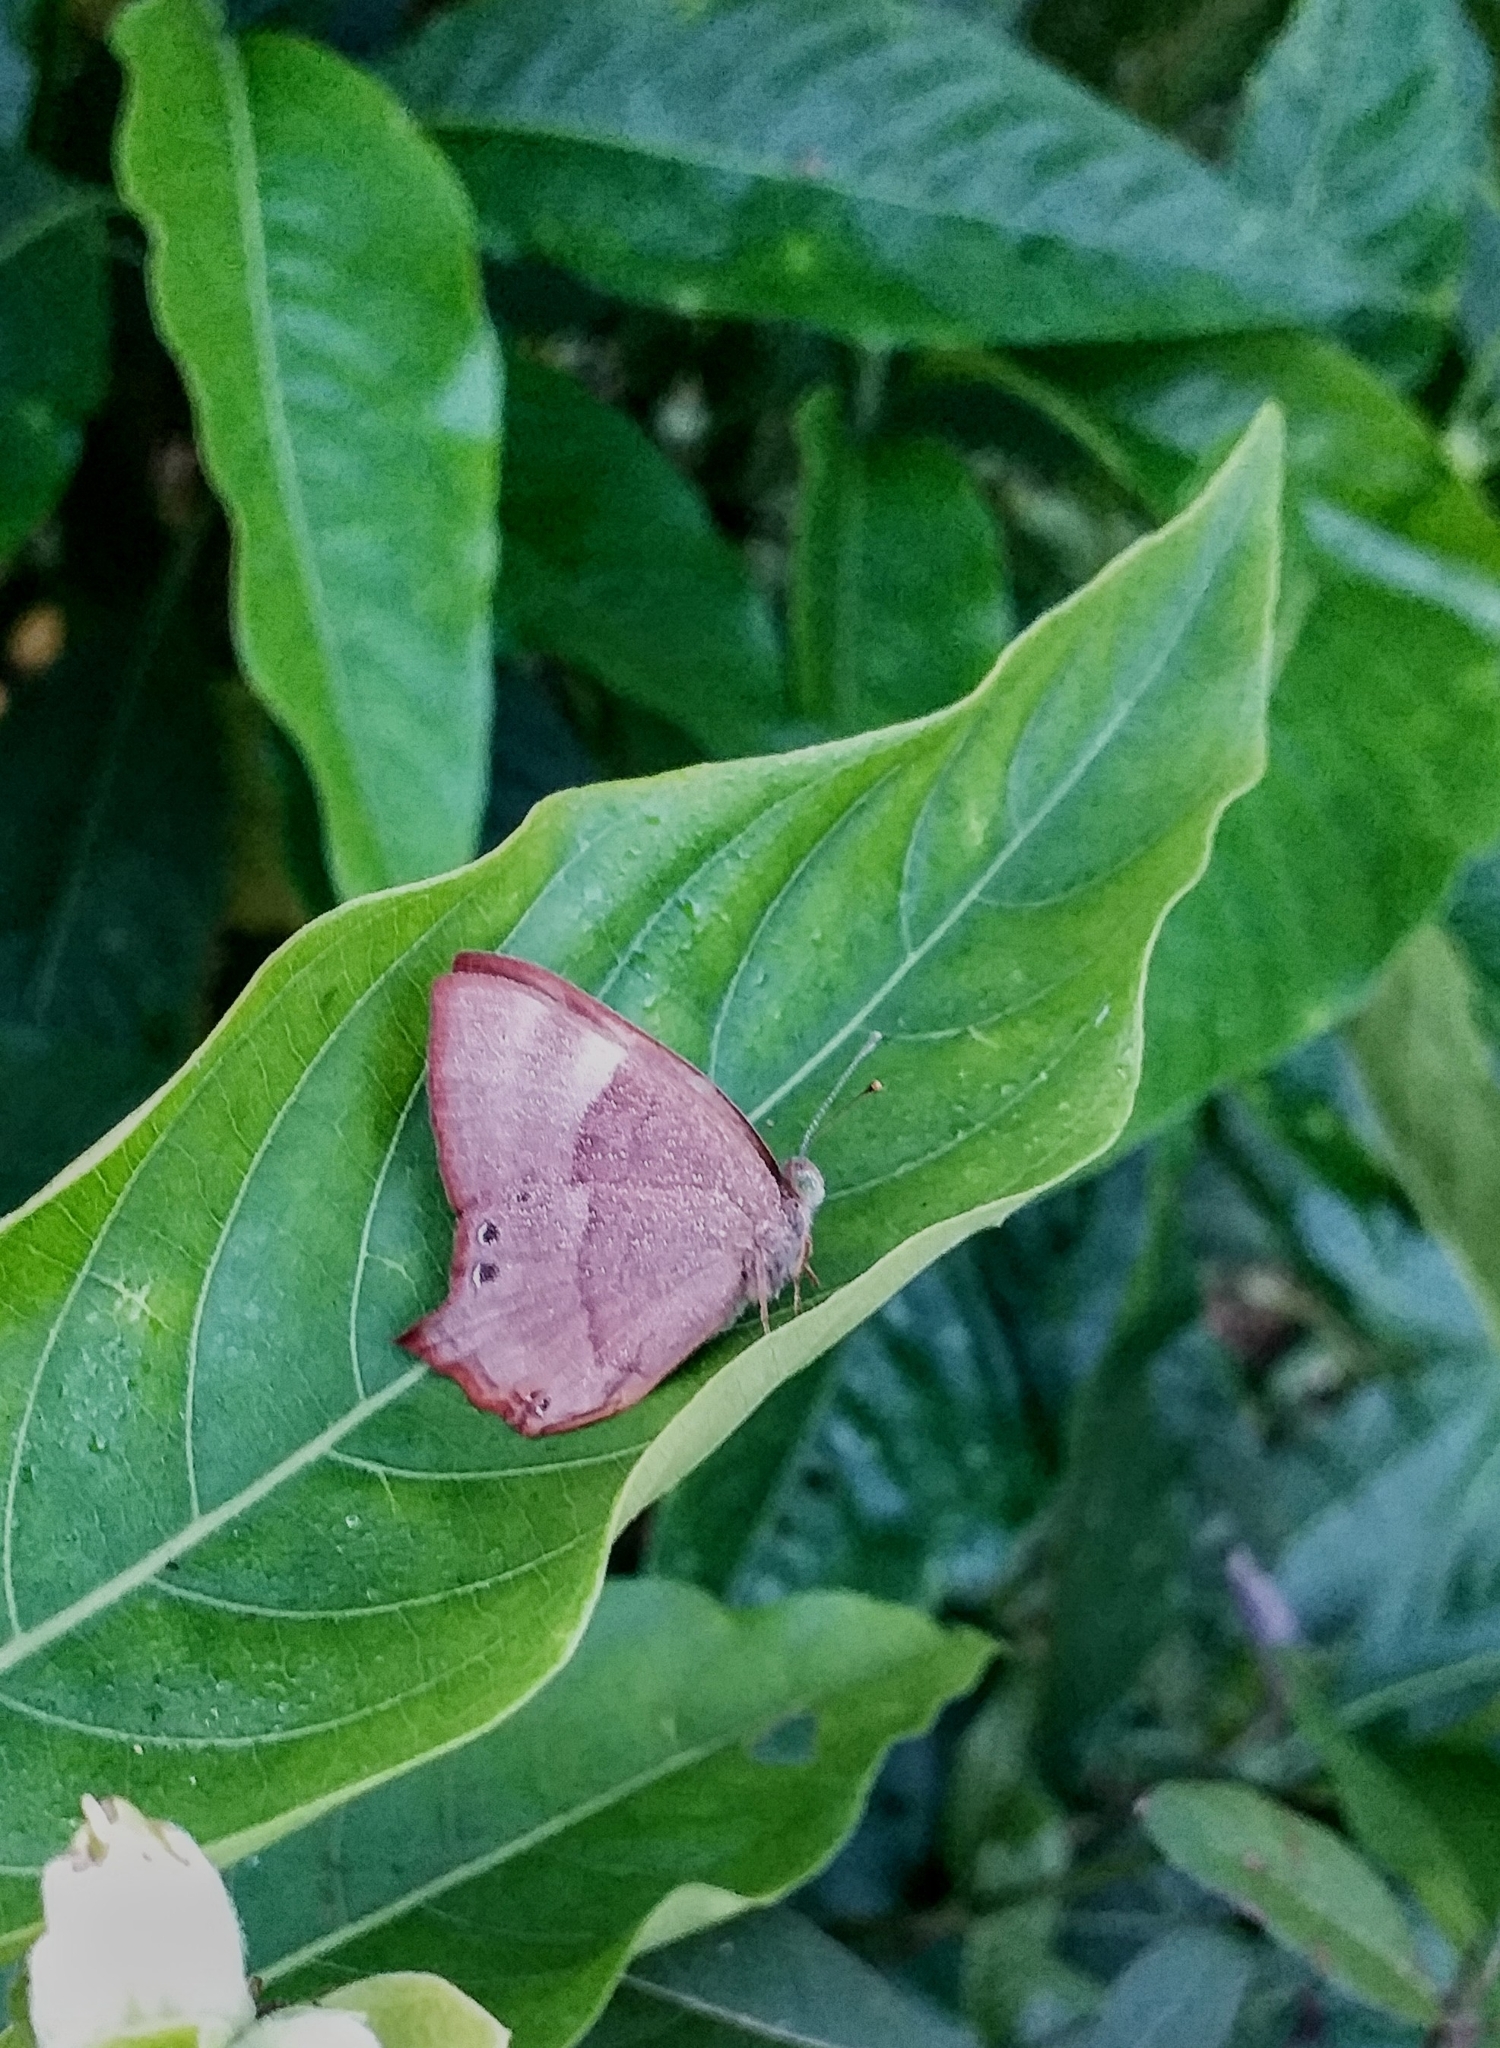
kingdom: Animalia
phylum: Arthropoda
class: Insecta
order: Lepidoptera
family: Lycaenidae
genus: Abisara
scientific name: Abisara echeria
